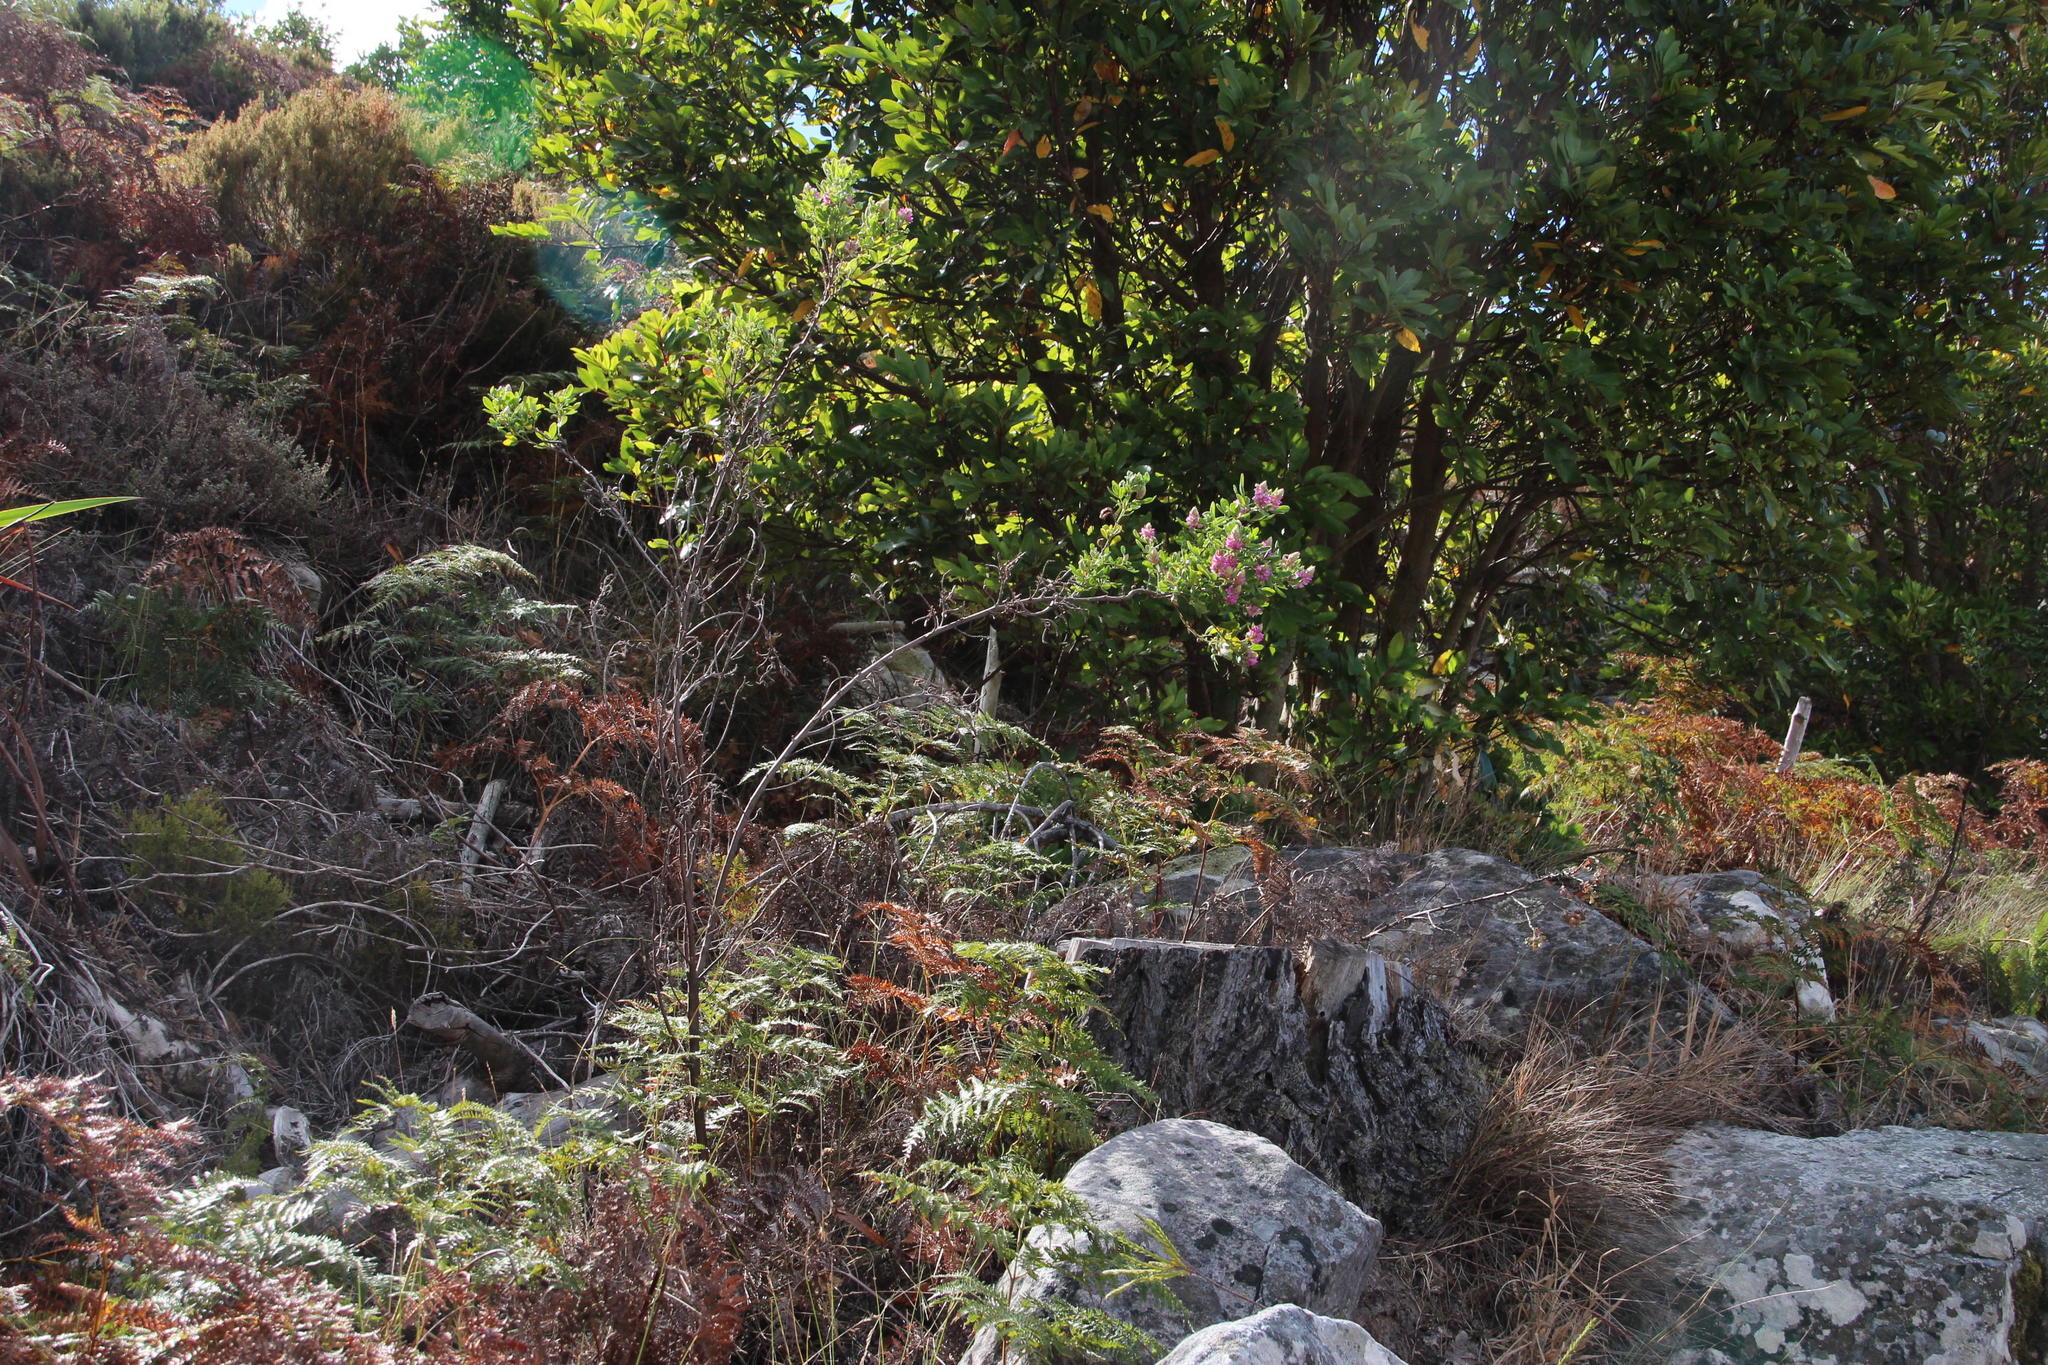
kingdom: Plantae
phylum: Tracheophyta
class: Magnoliopsida
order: Fabales
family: Fabaceae
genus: Indigofera
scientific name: Indigofera cytisoides
